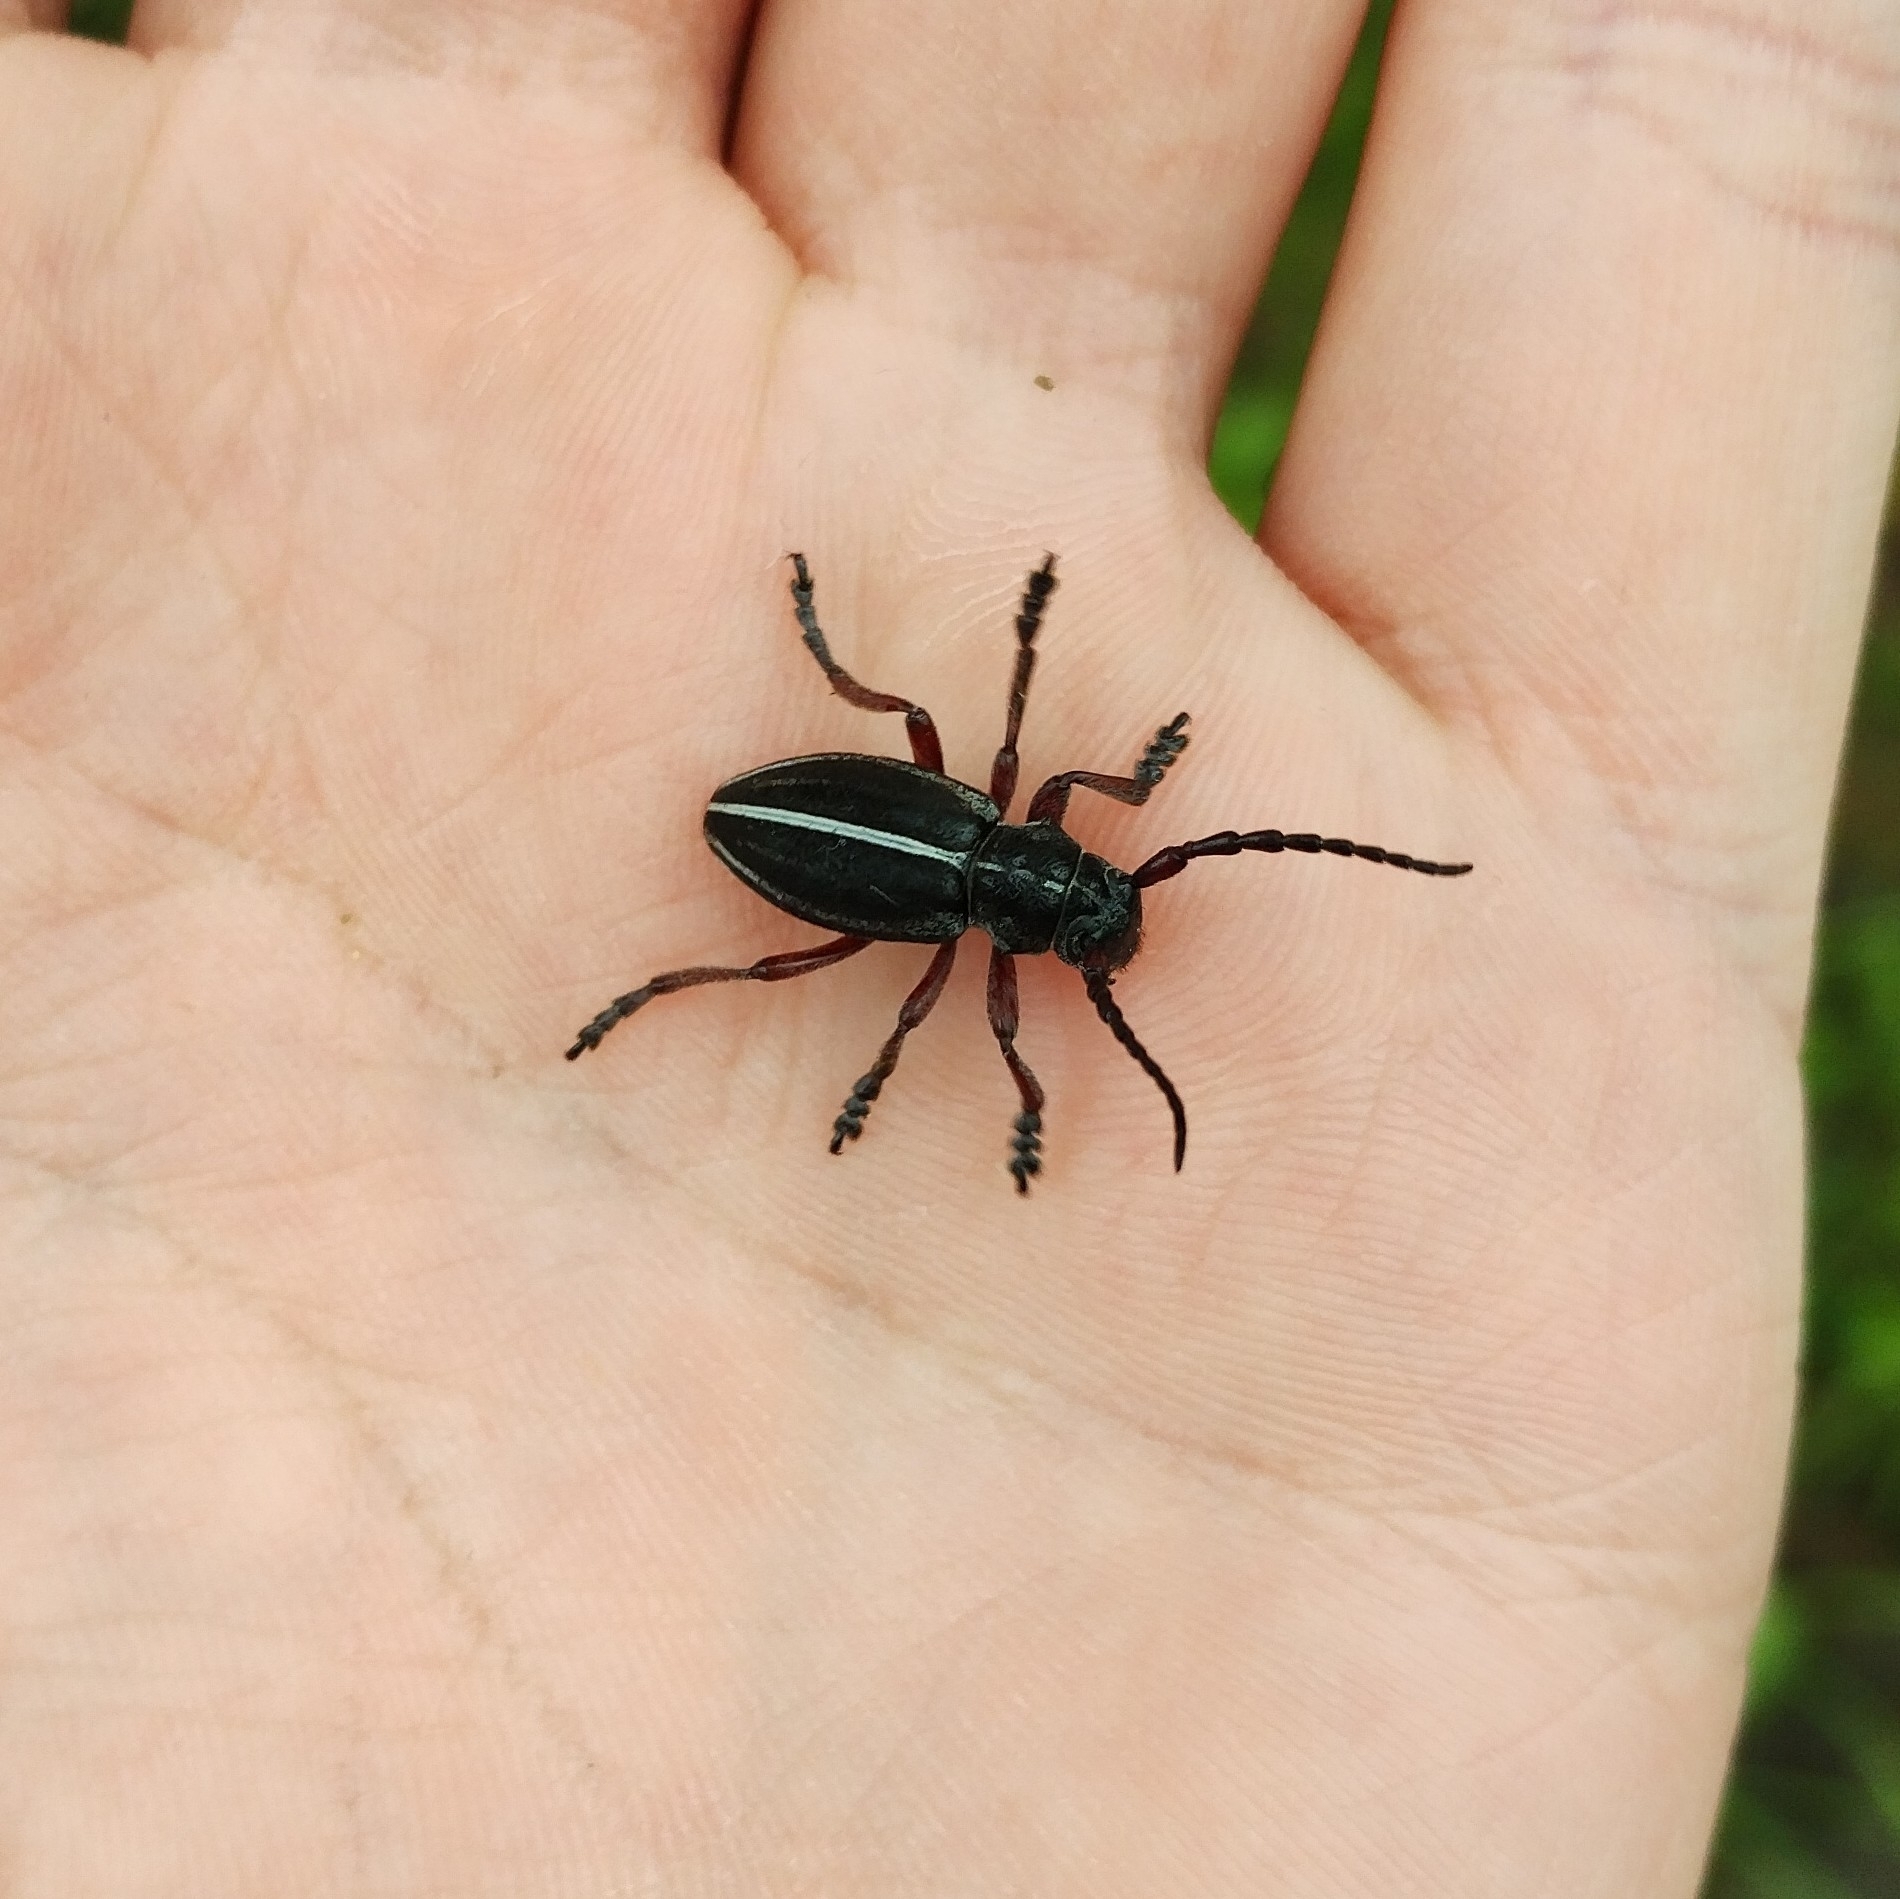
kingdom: Animalia
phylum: Arthropoda
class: Insecta
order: Coleoptera
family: Cerambycidae
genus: Dorcadion
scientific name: Dorcadion tauricum
